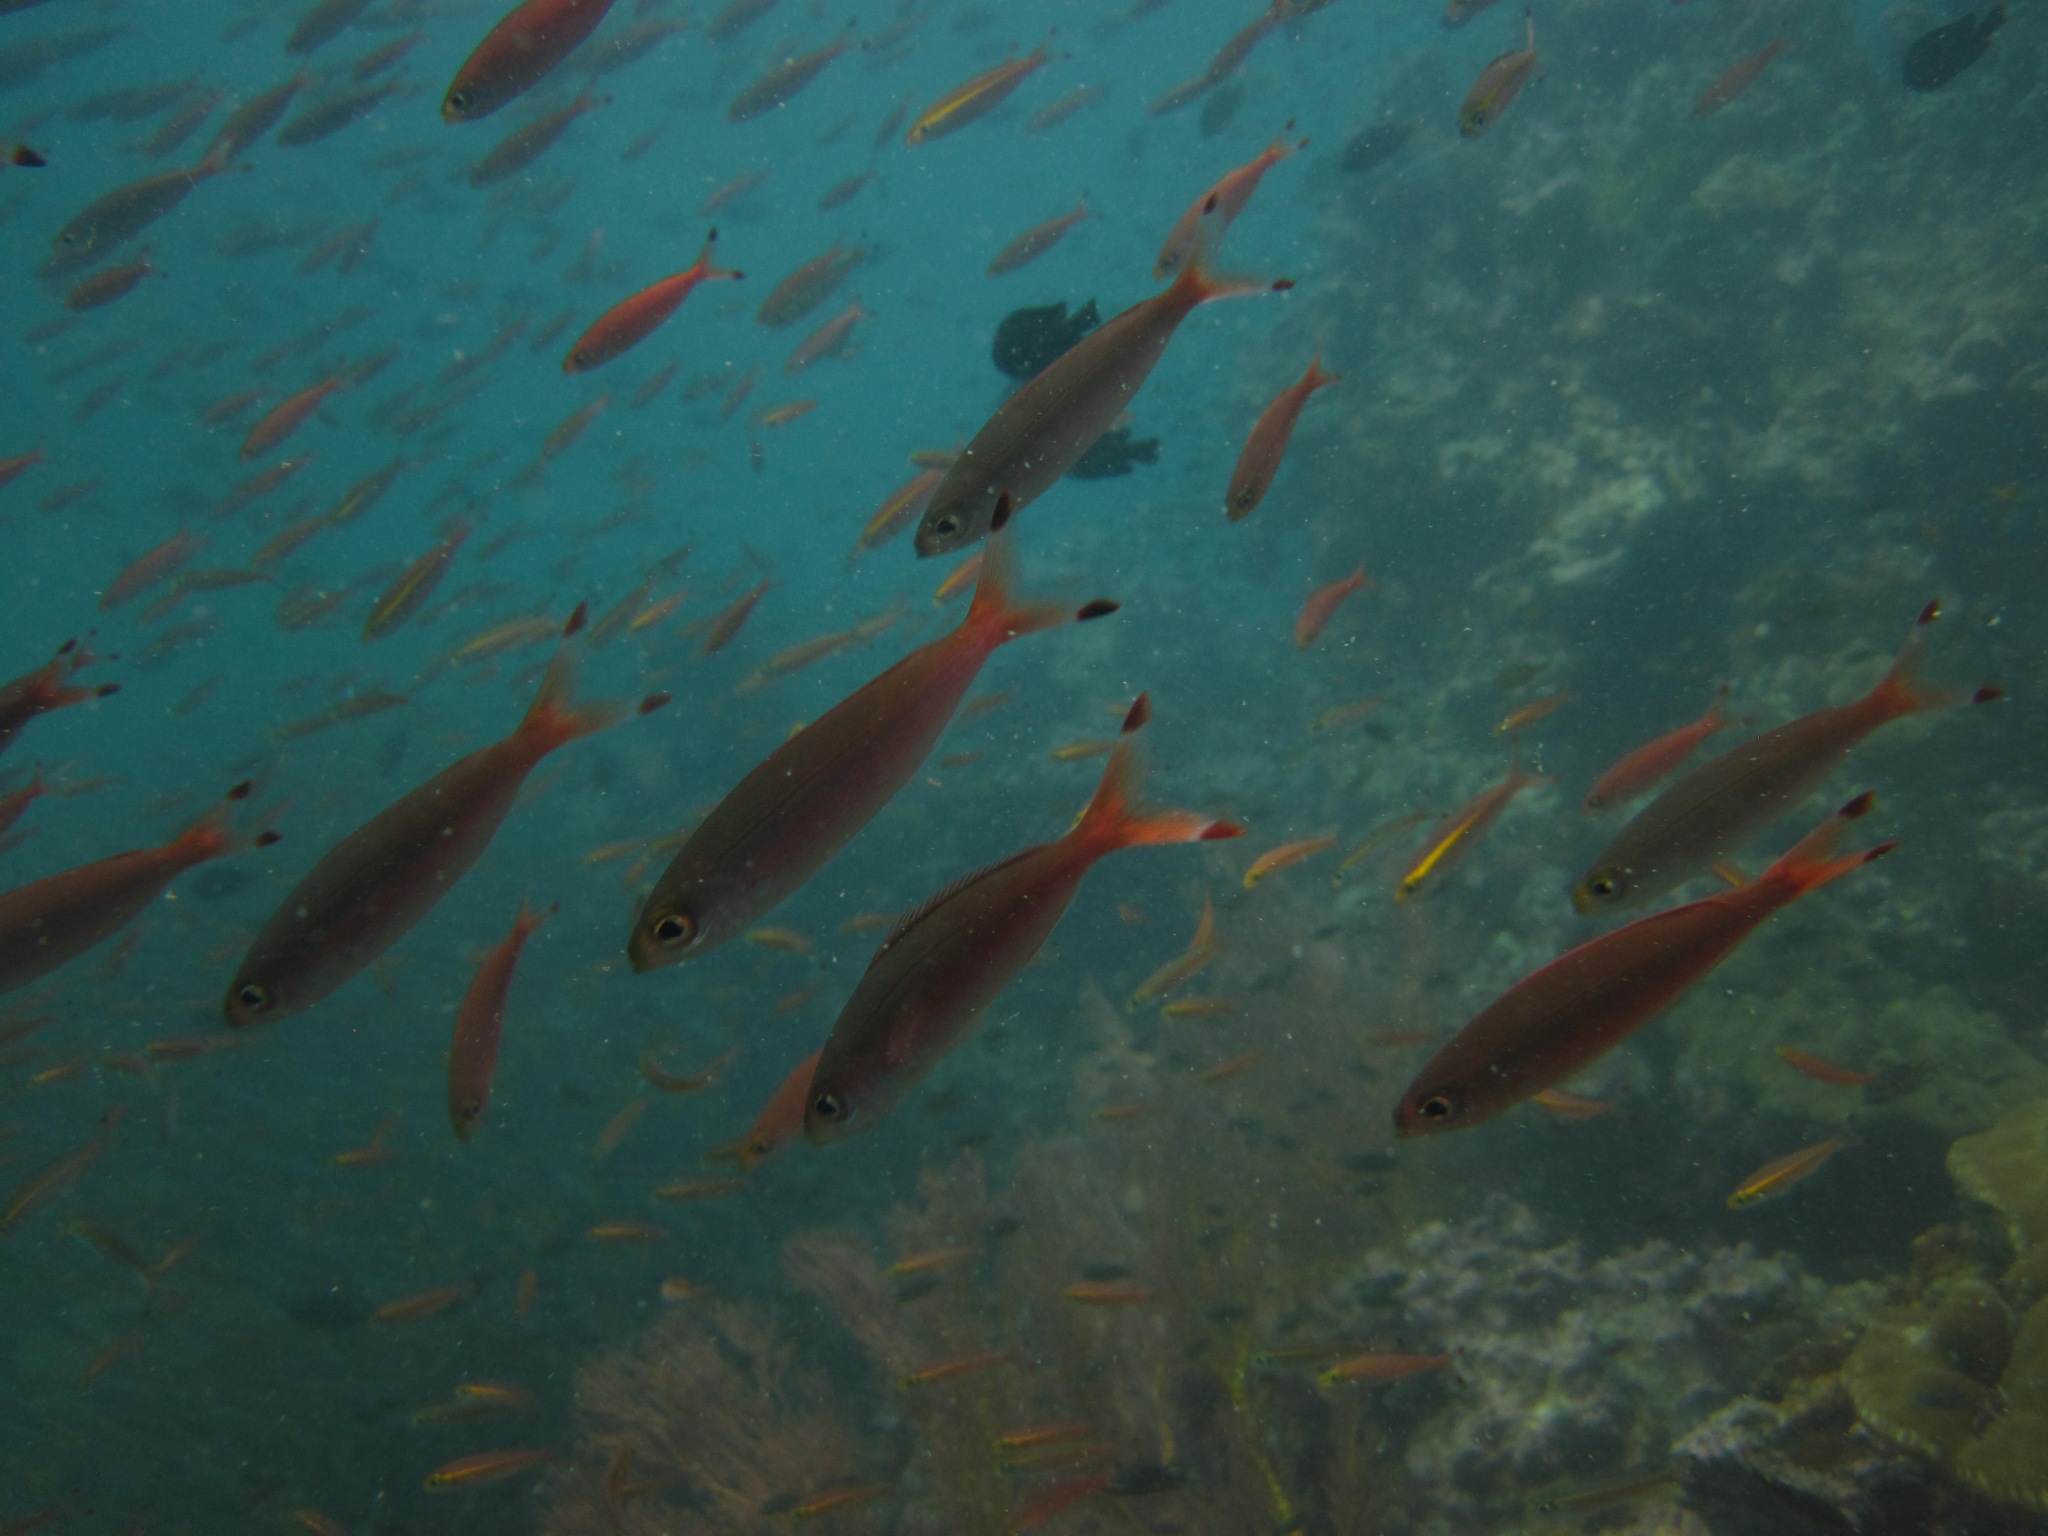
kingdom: Animalia
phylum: Chordata
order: Perciformes
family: Caesionidae
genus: Pterocaesio
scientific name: Pterocaesio pisang
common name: Banana fusilier
